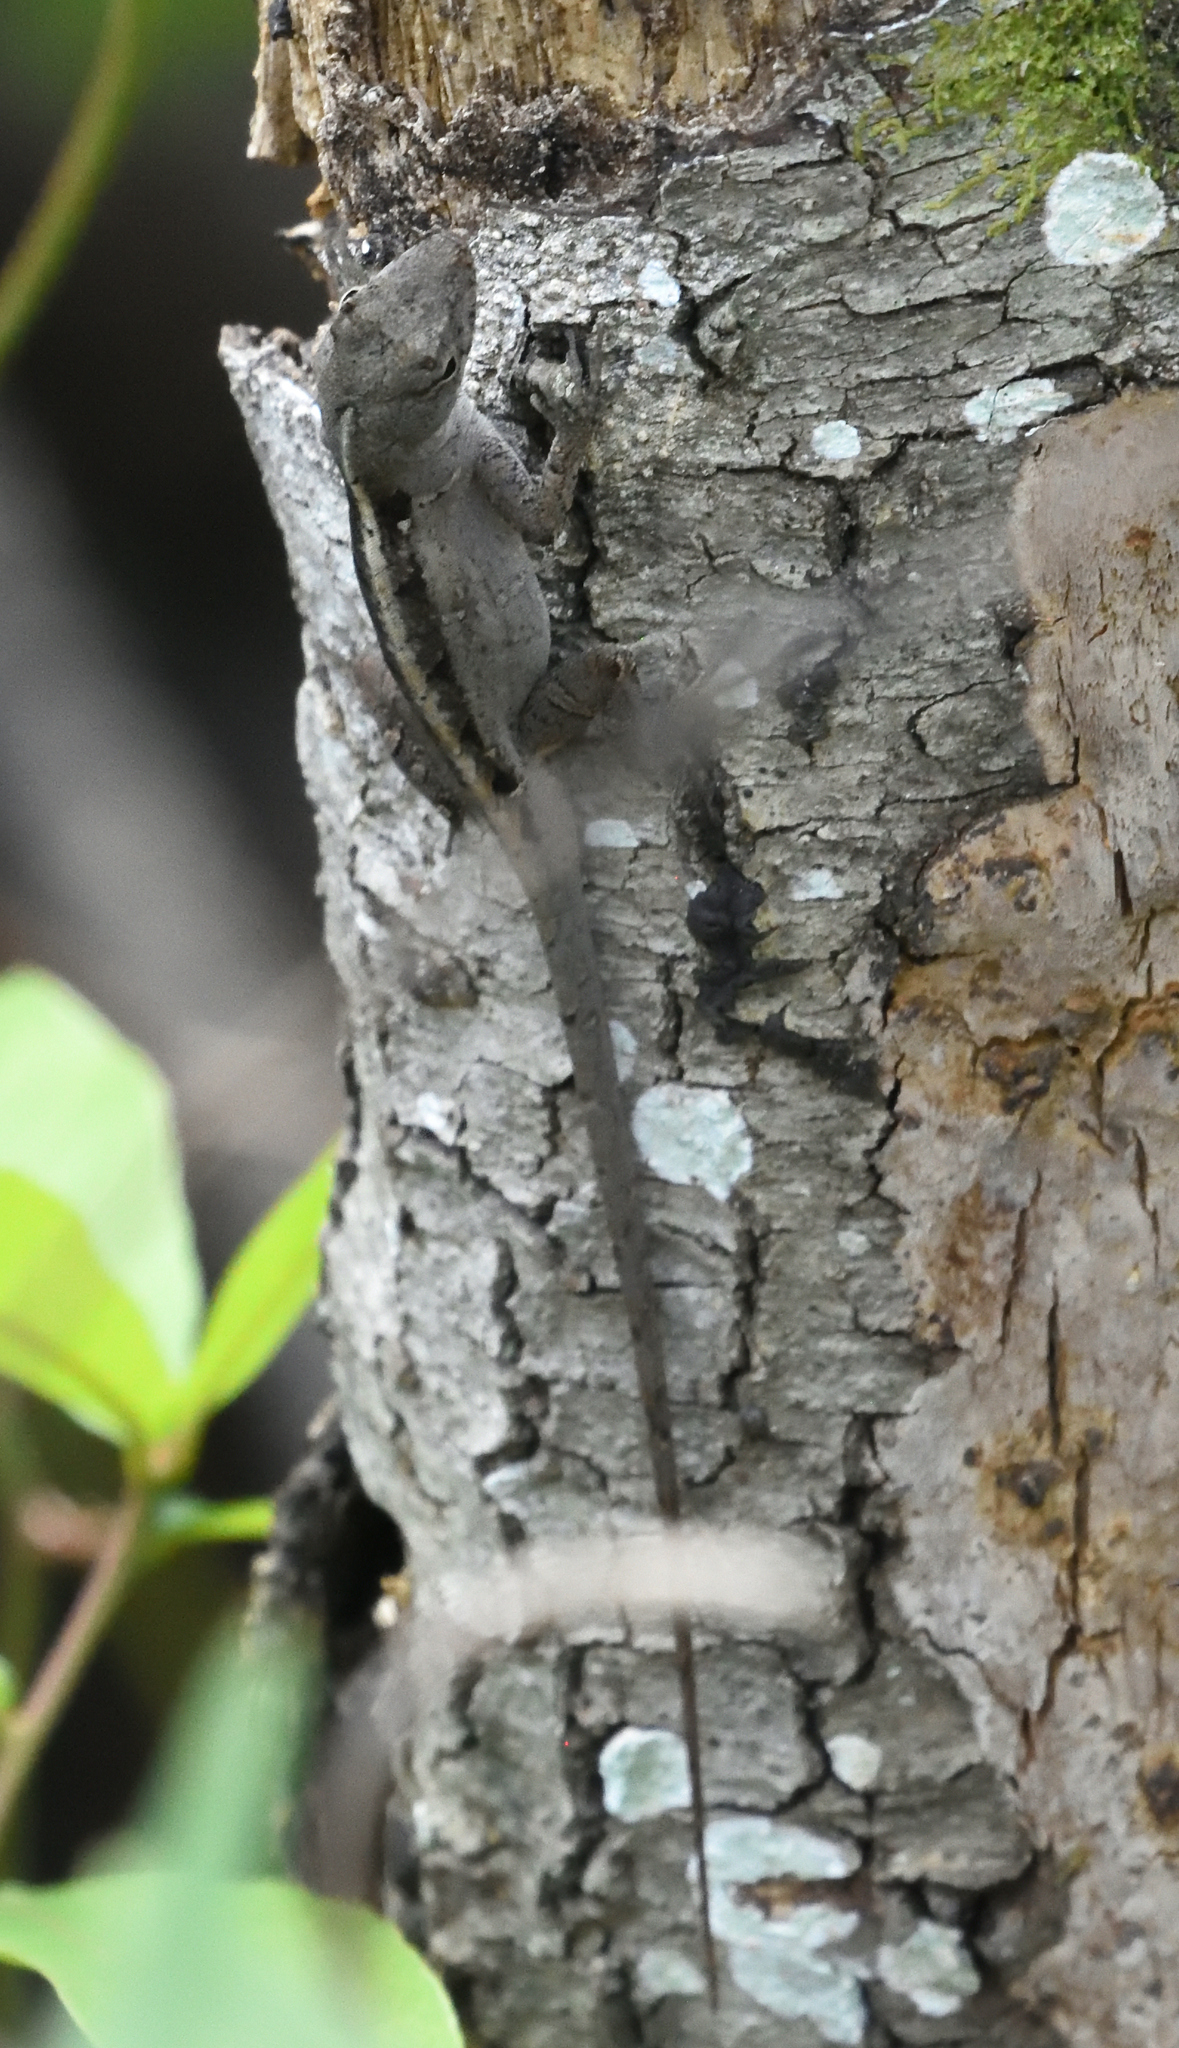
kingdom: Animalia
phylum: Chordata
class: Squamata
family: Dactyloidae
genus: Anolis
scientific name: Anolis sagrei
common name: Brown anole
